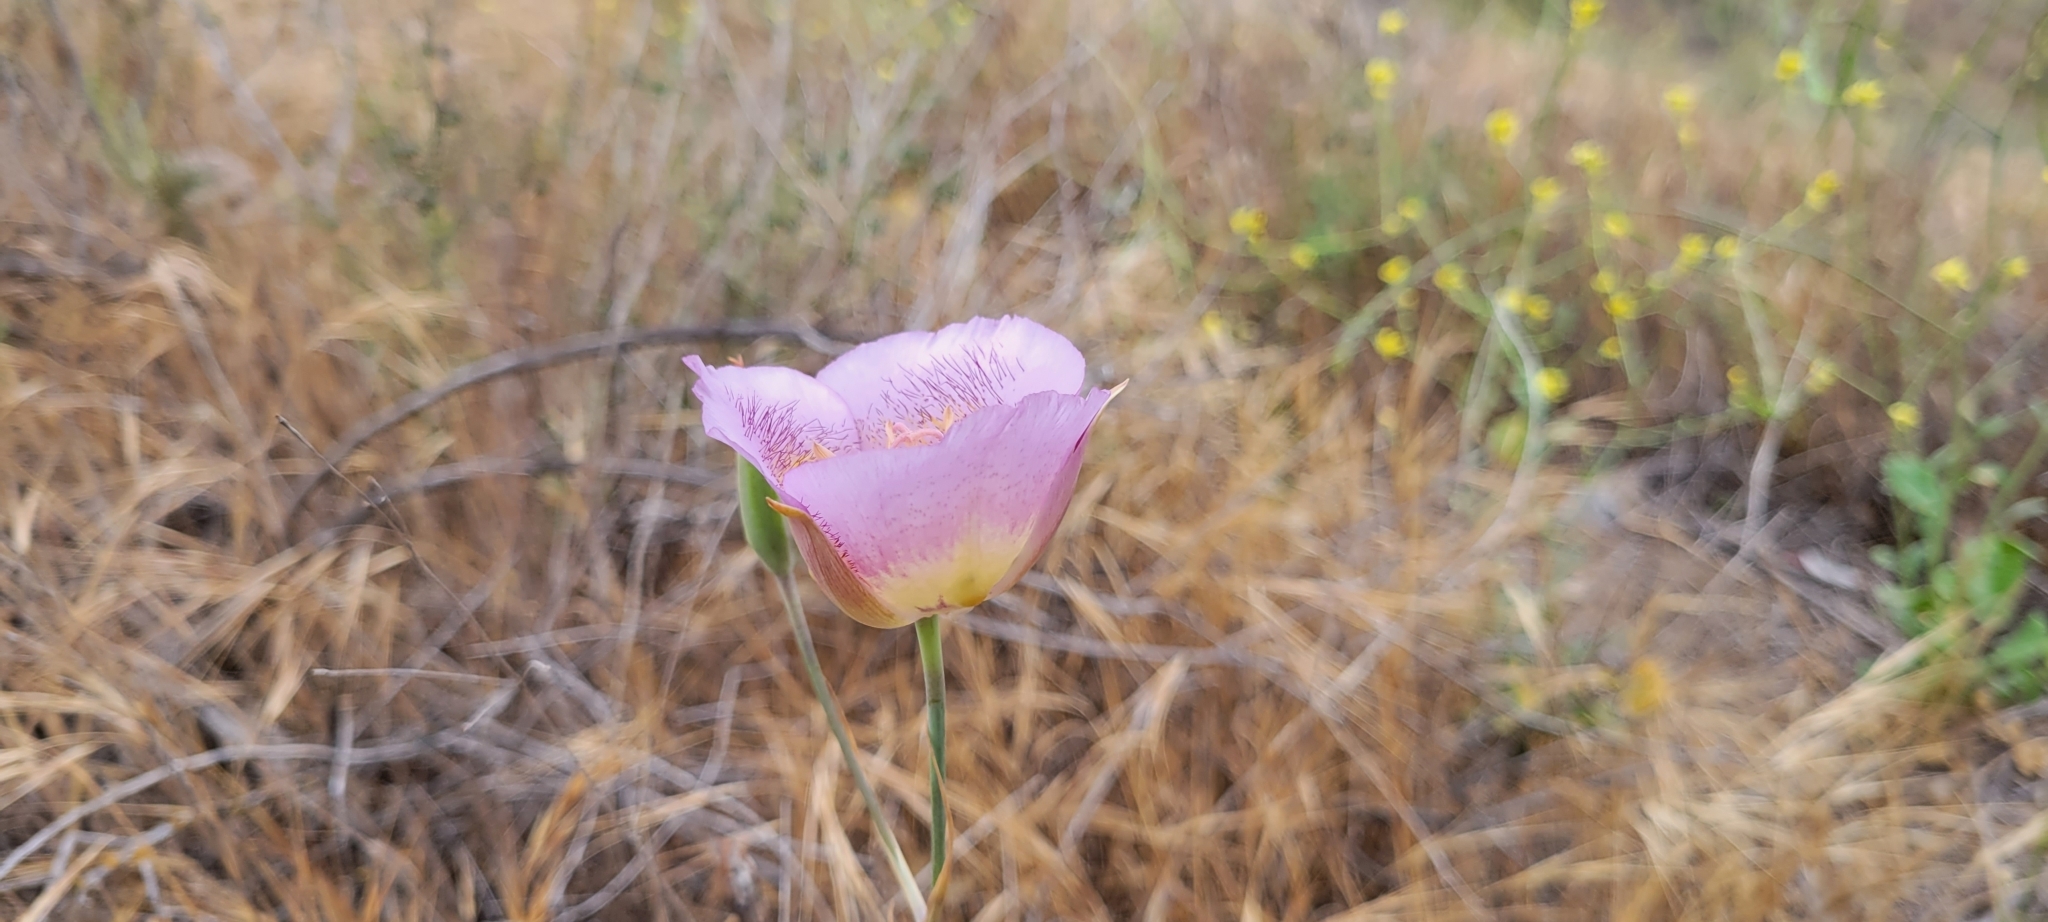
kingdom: Plantae
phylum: Tracheophyta
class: Liliopsida
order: Liliales
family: Liliaceae
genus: Calochortus
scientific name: Calochortus plummerae
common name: Plummer's mariposa-lily
